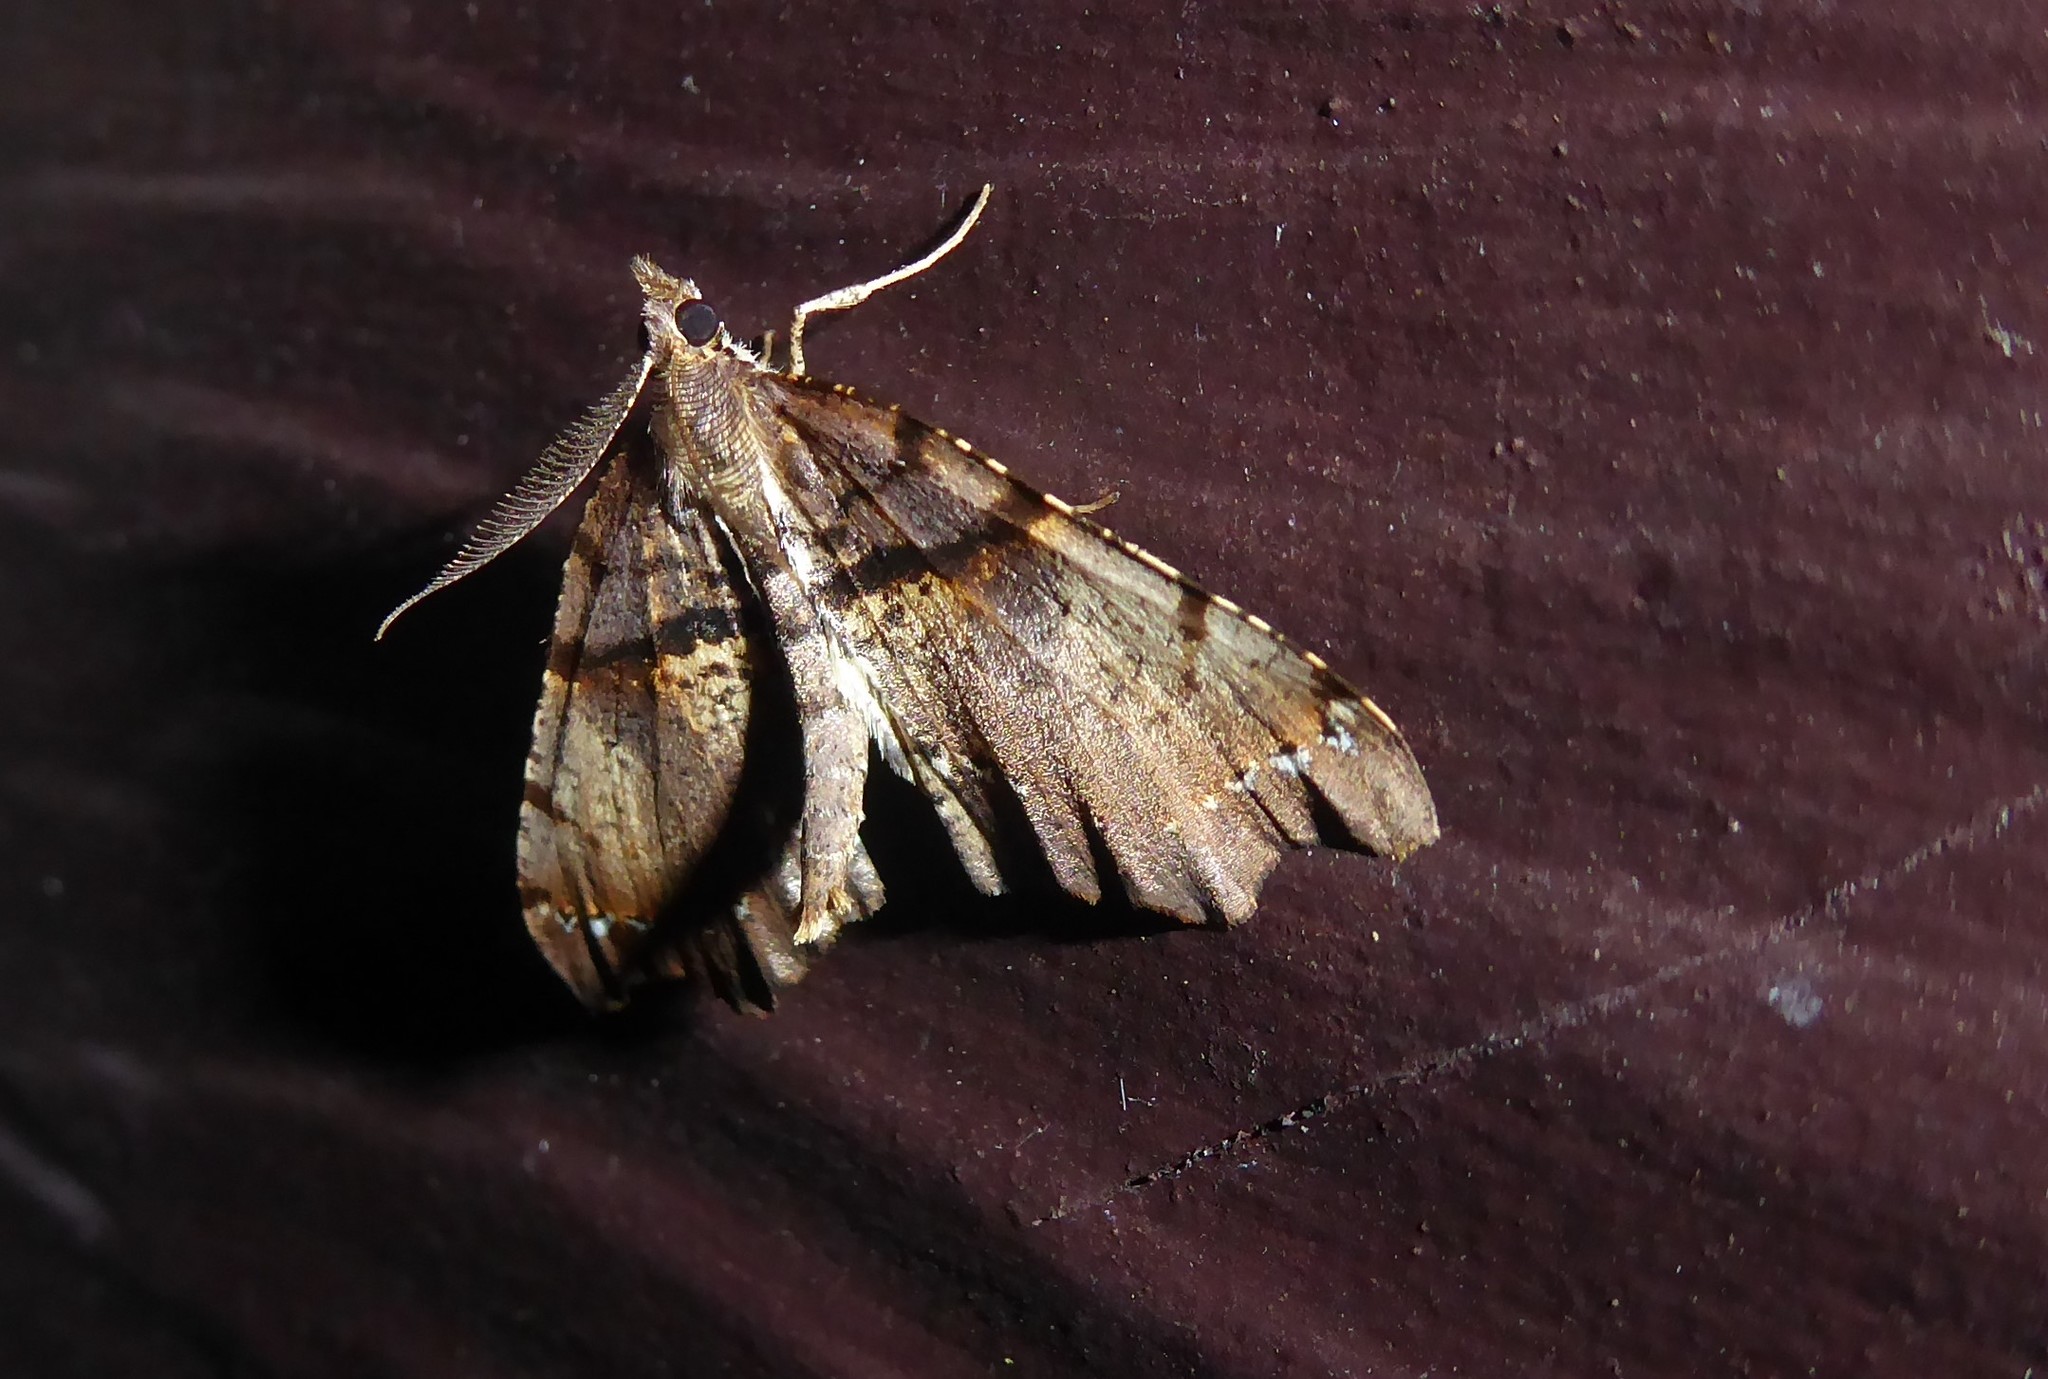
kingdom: Animalia
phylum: Arthropoda
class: Insecta
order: Lepidoptera
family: Geometridae
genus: Chalastra
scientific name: Chalastra pellurgata
